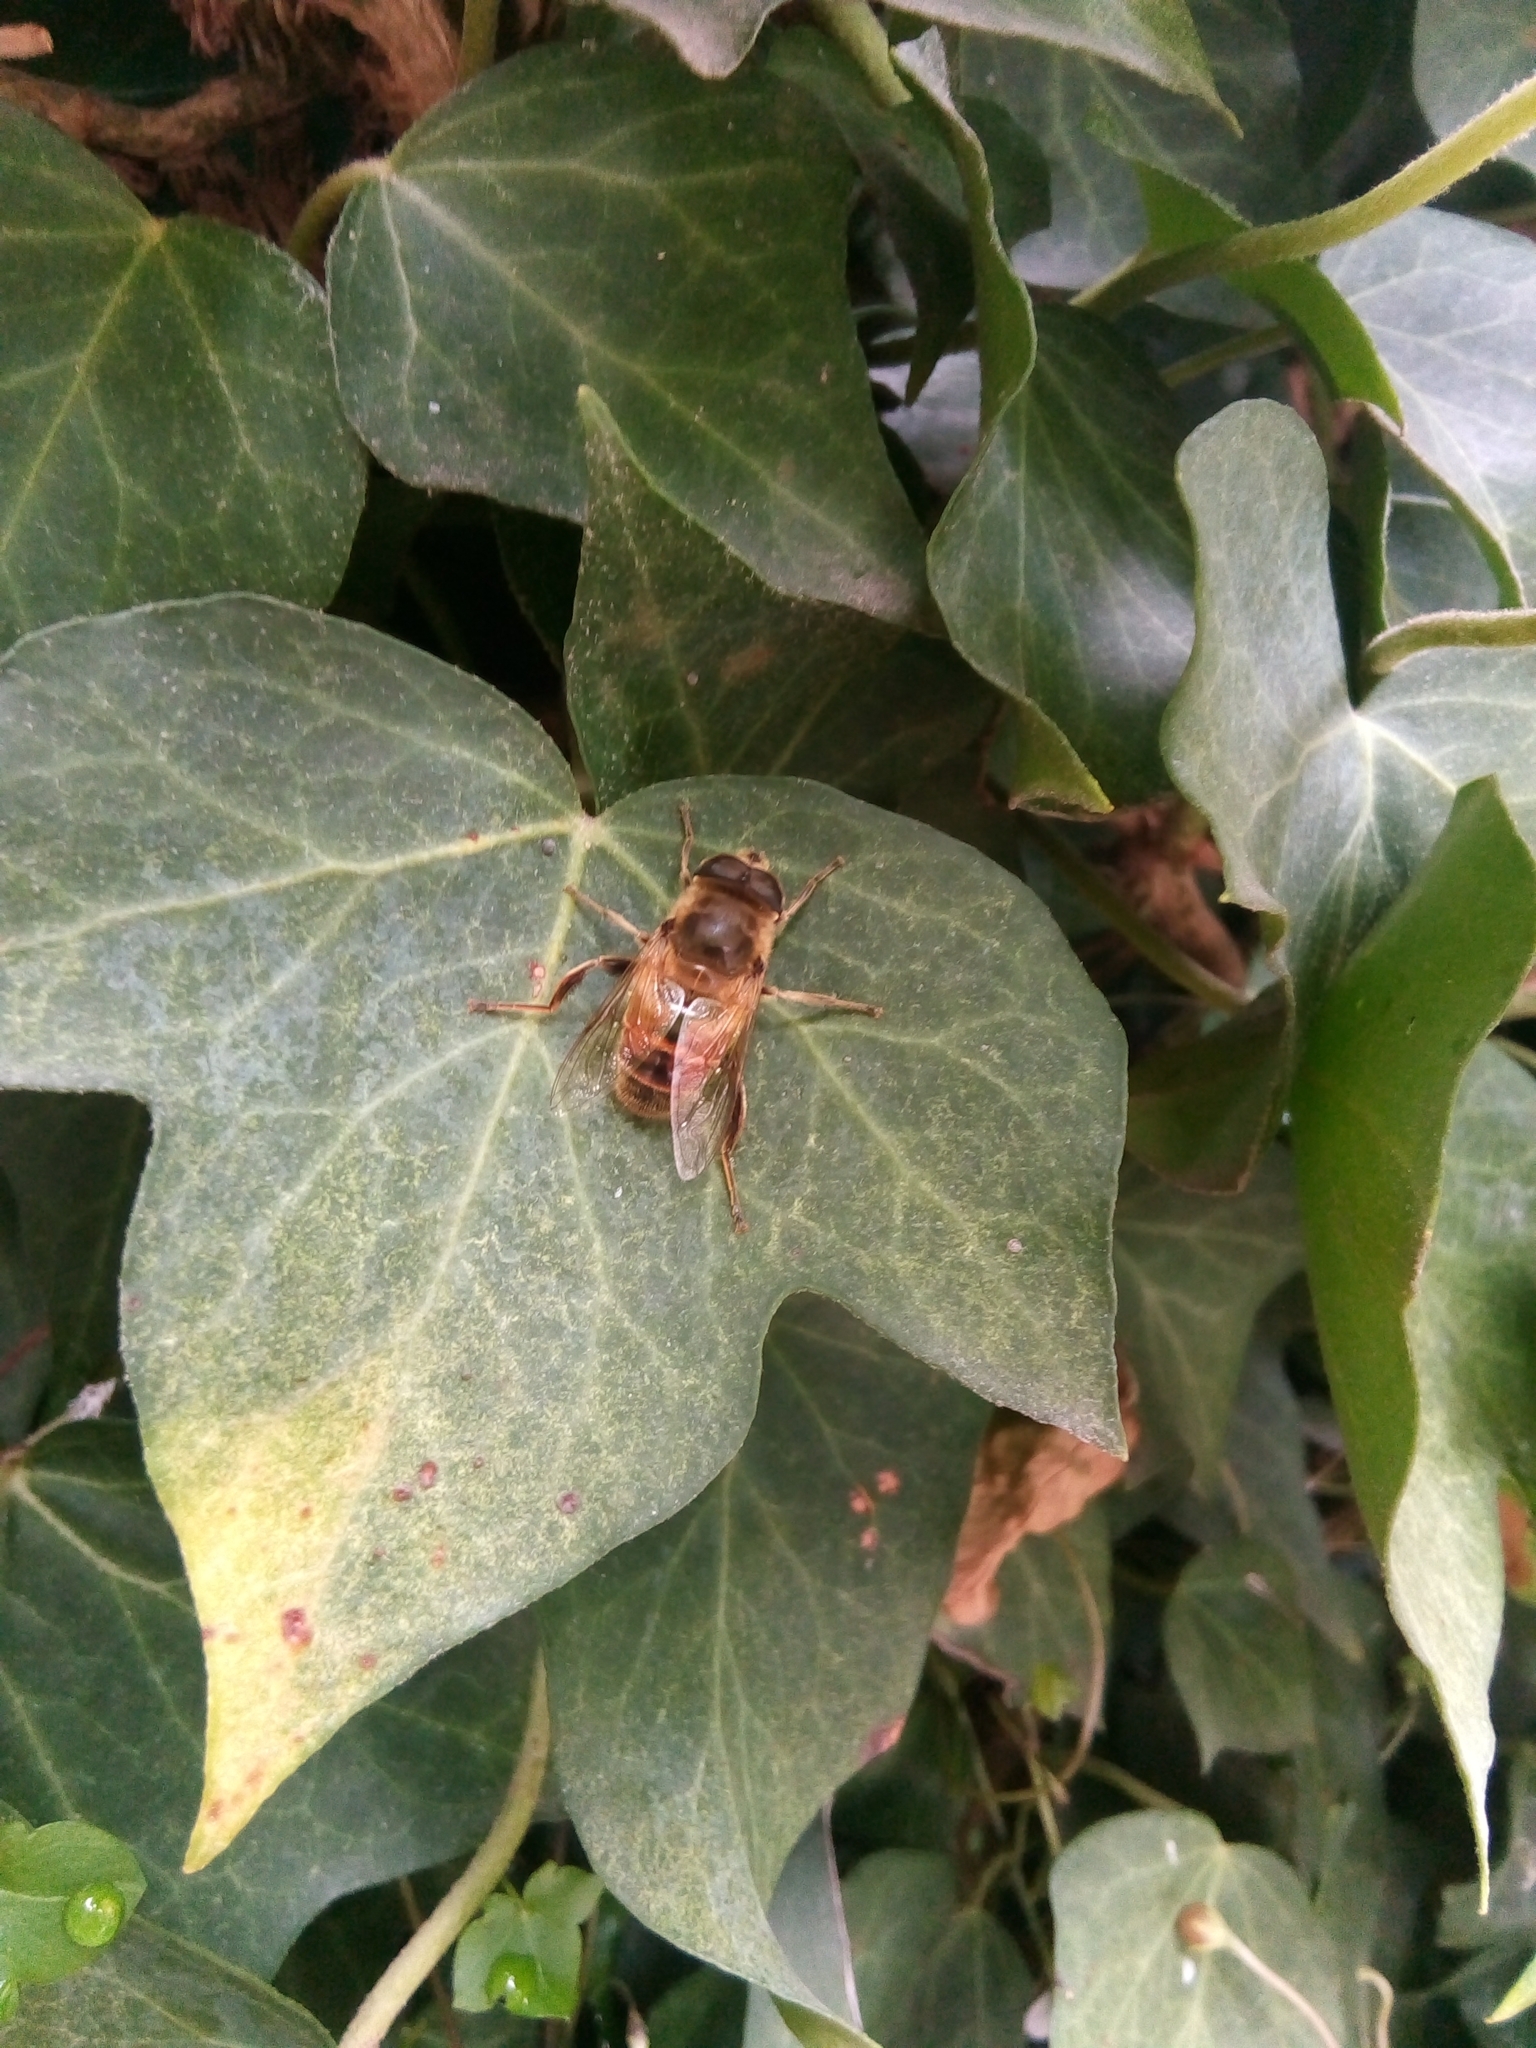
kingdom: Animalia
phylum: Arthropoda
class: Insecta
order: Diptera
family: Syrphidae
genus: Eristalis
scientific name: Eristalis tenax
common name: Drone fly
